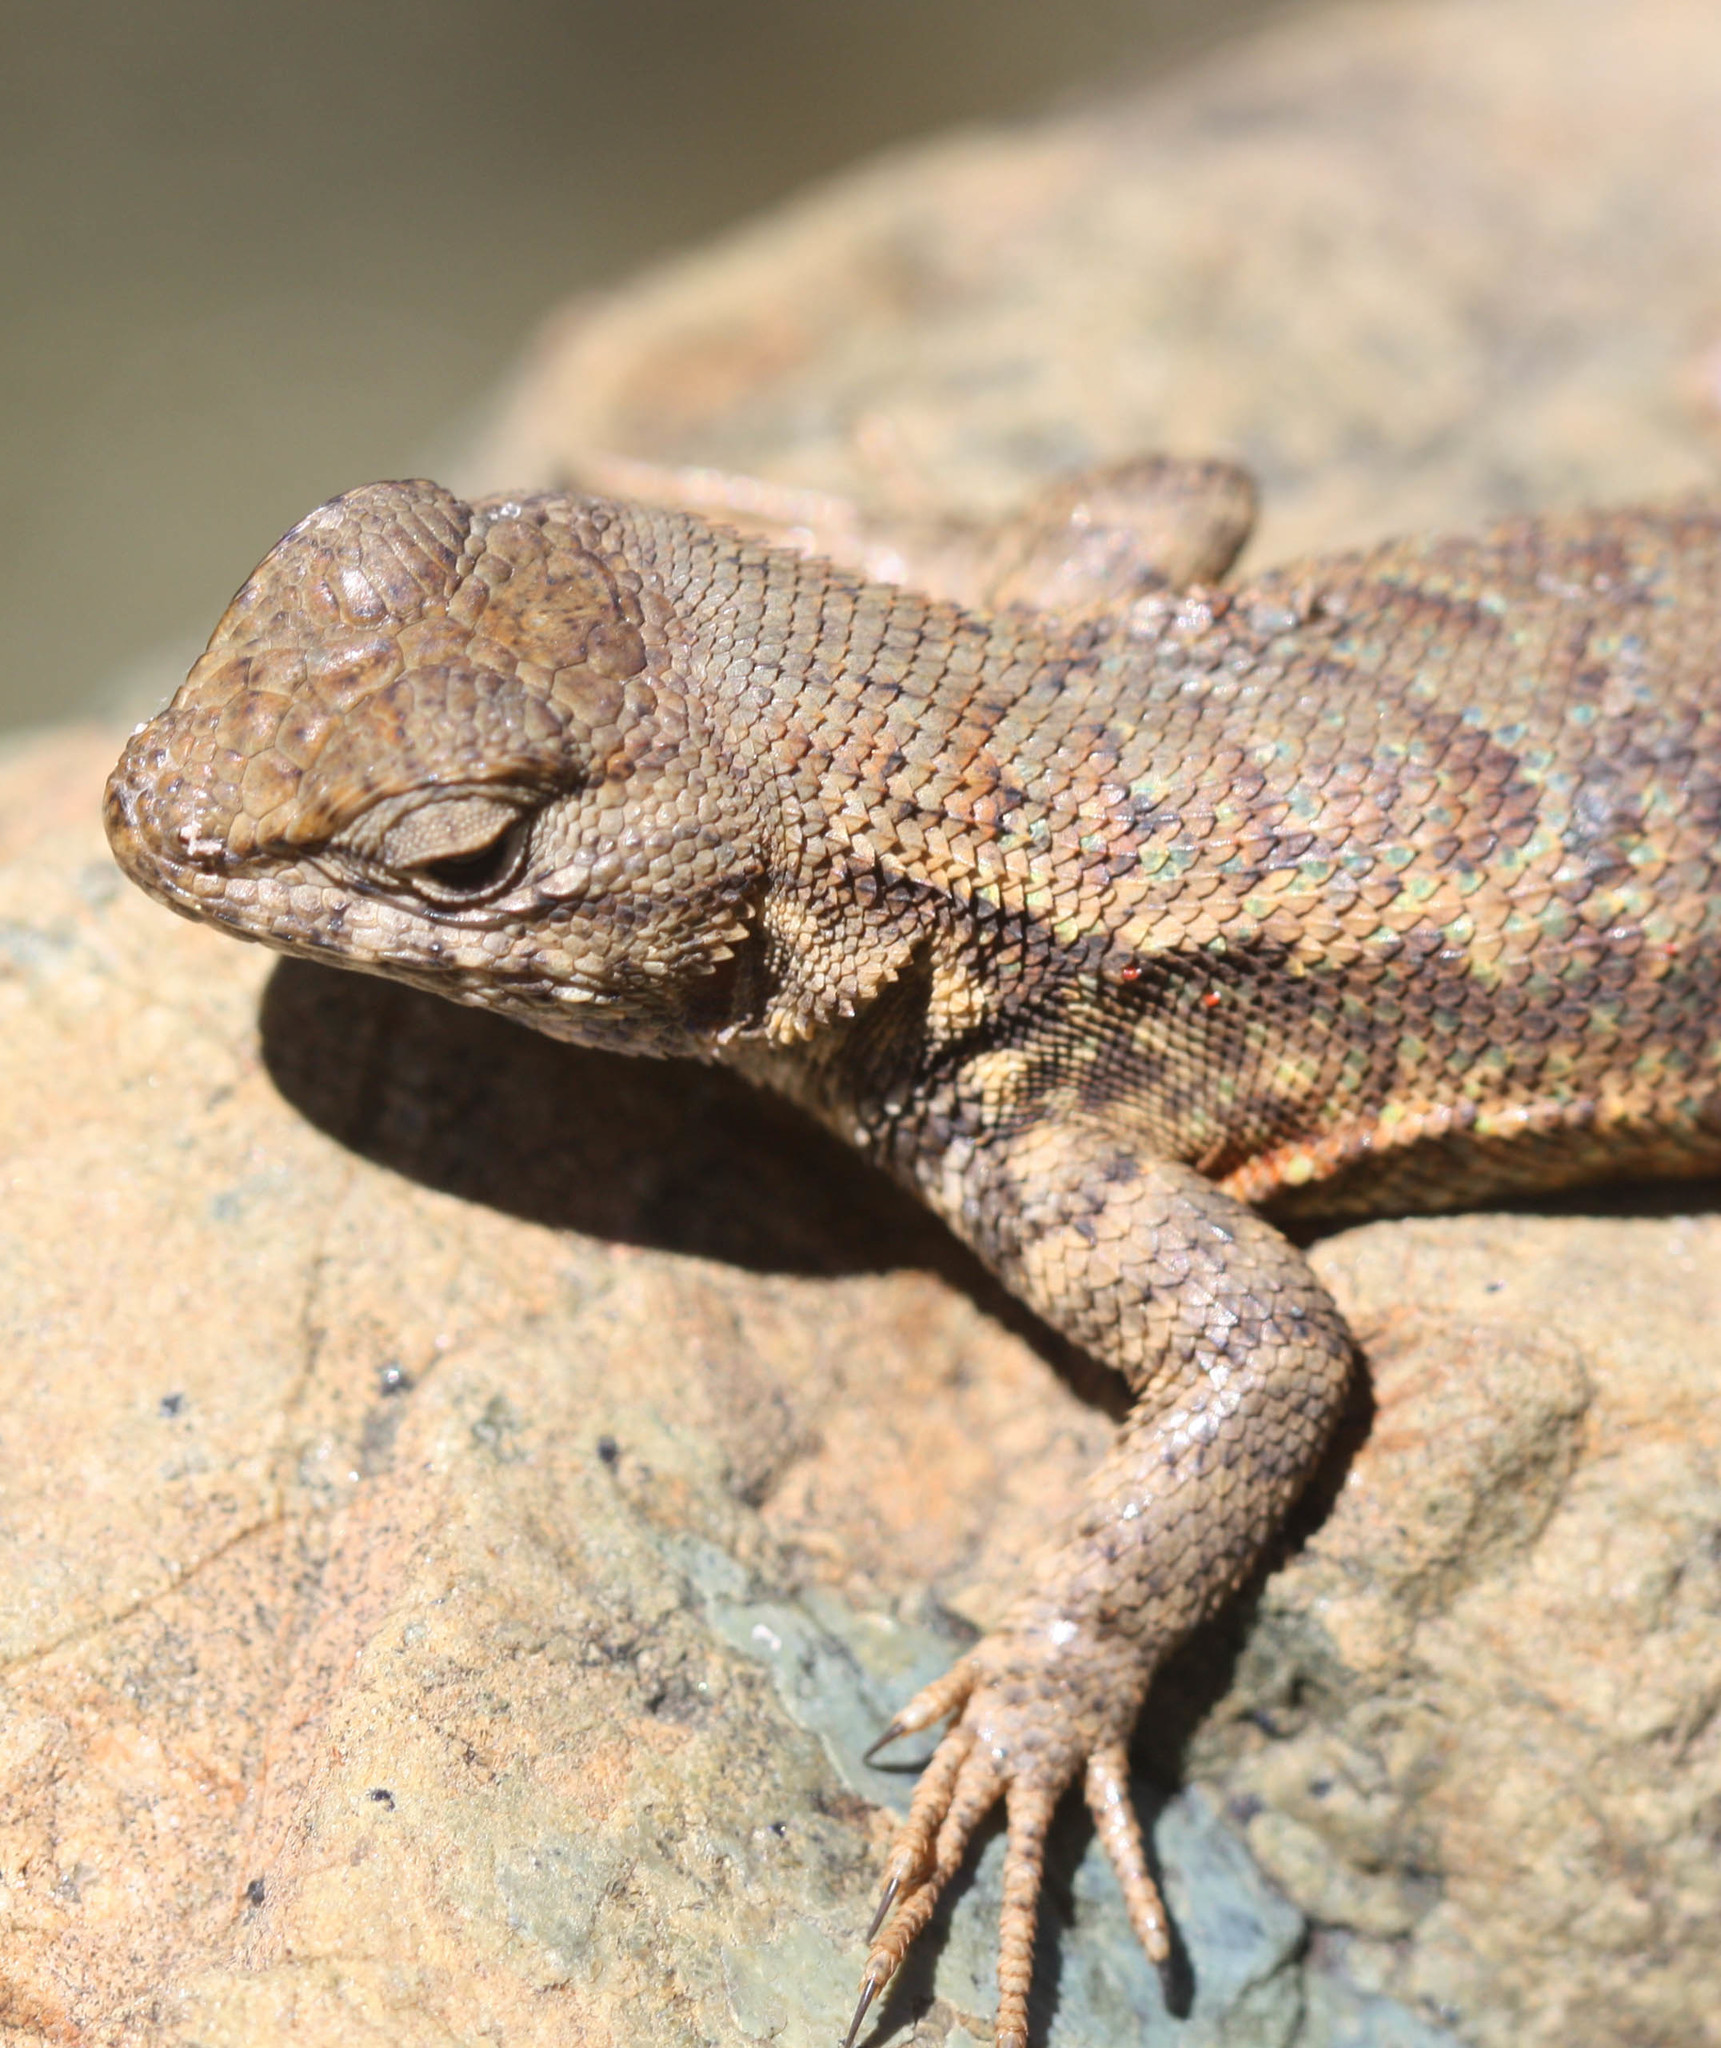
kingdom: Animalia
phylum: Chordata
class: Squamata
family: Phrynosomatidae
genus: Sceloporus
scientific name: Sceloporus graciosus
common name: Sagebrush lizard
